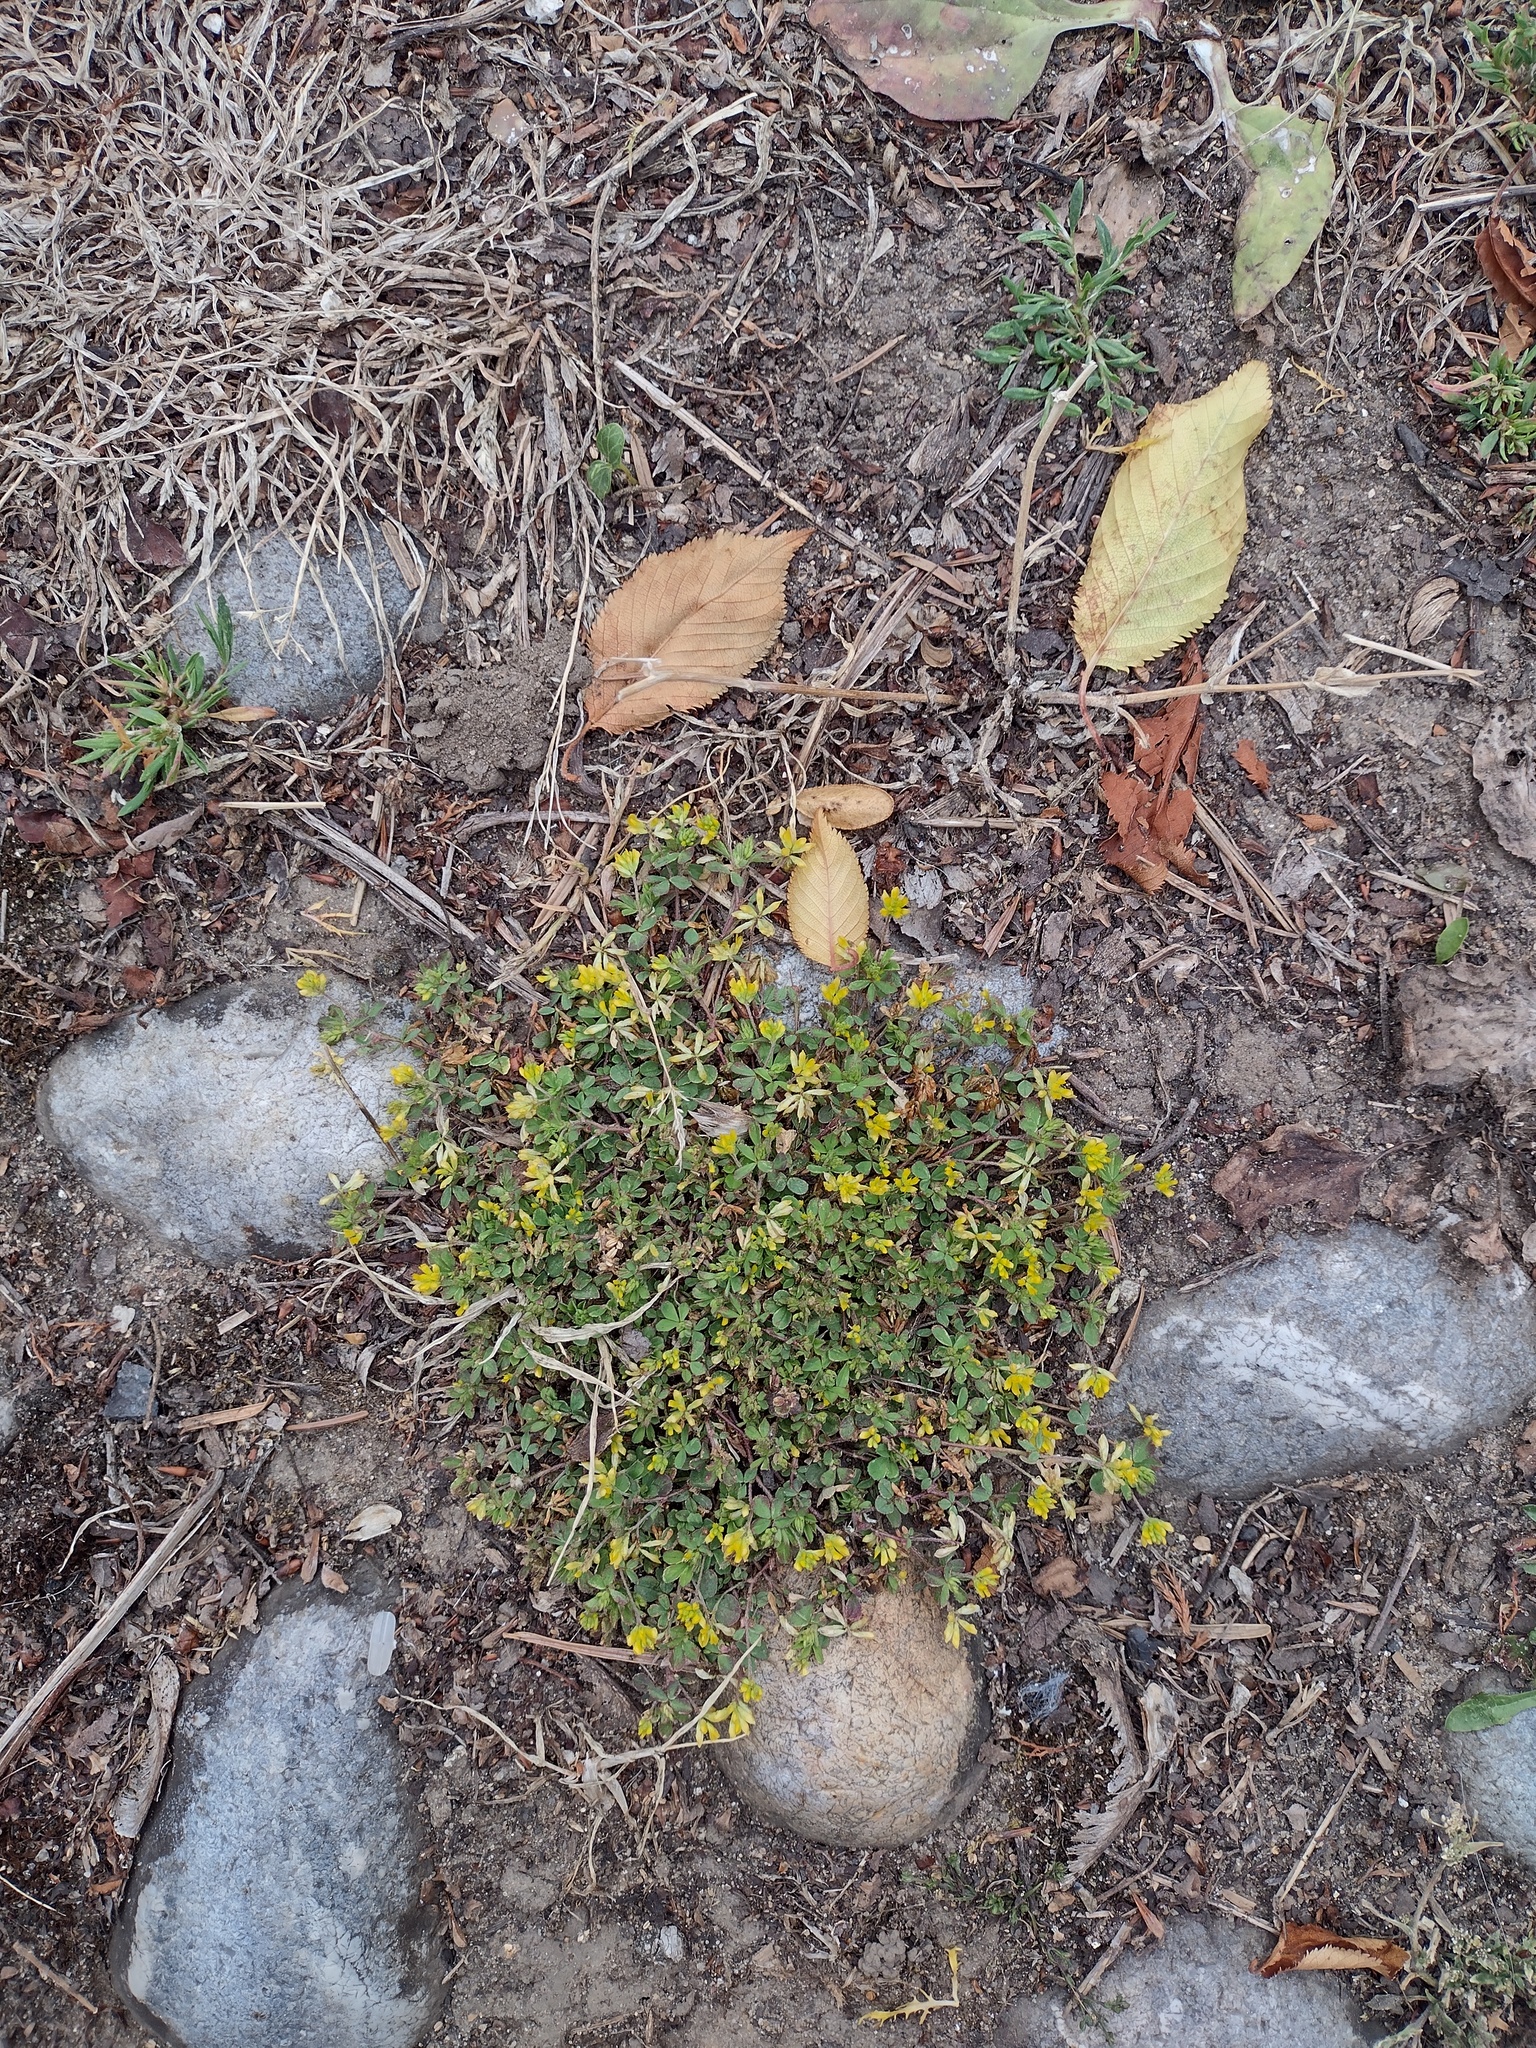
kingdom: Plantae
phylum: Tracheophyta
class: Magnoliopsida
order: Fabales
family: Fabaceae
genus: Trifolium
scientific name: Trifolium dubium
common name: Suckling clover
